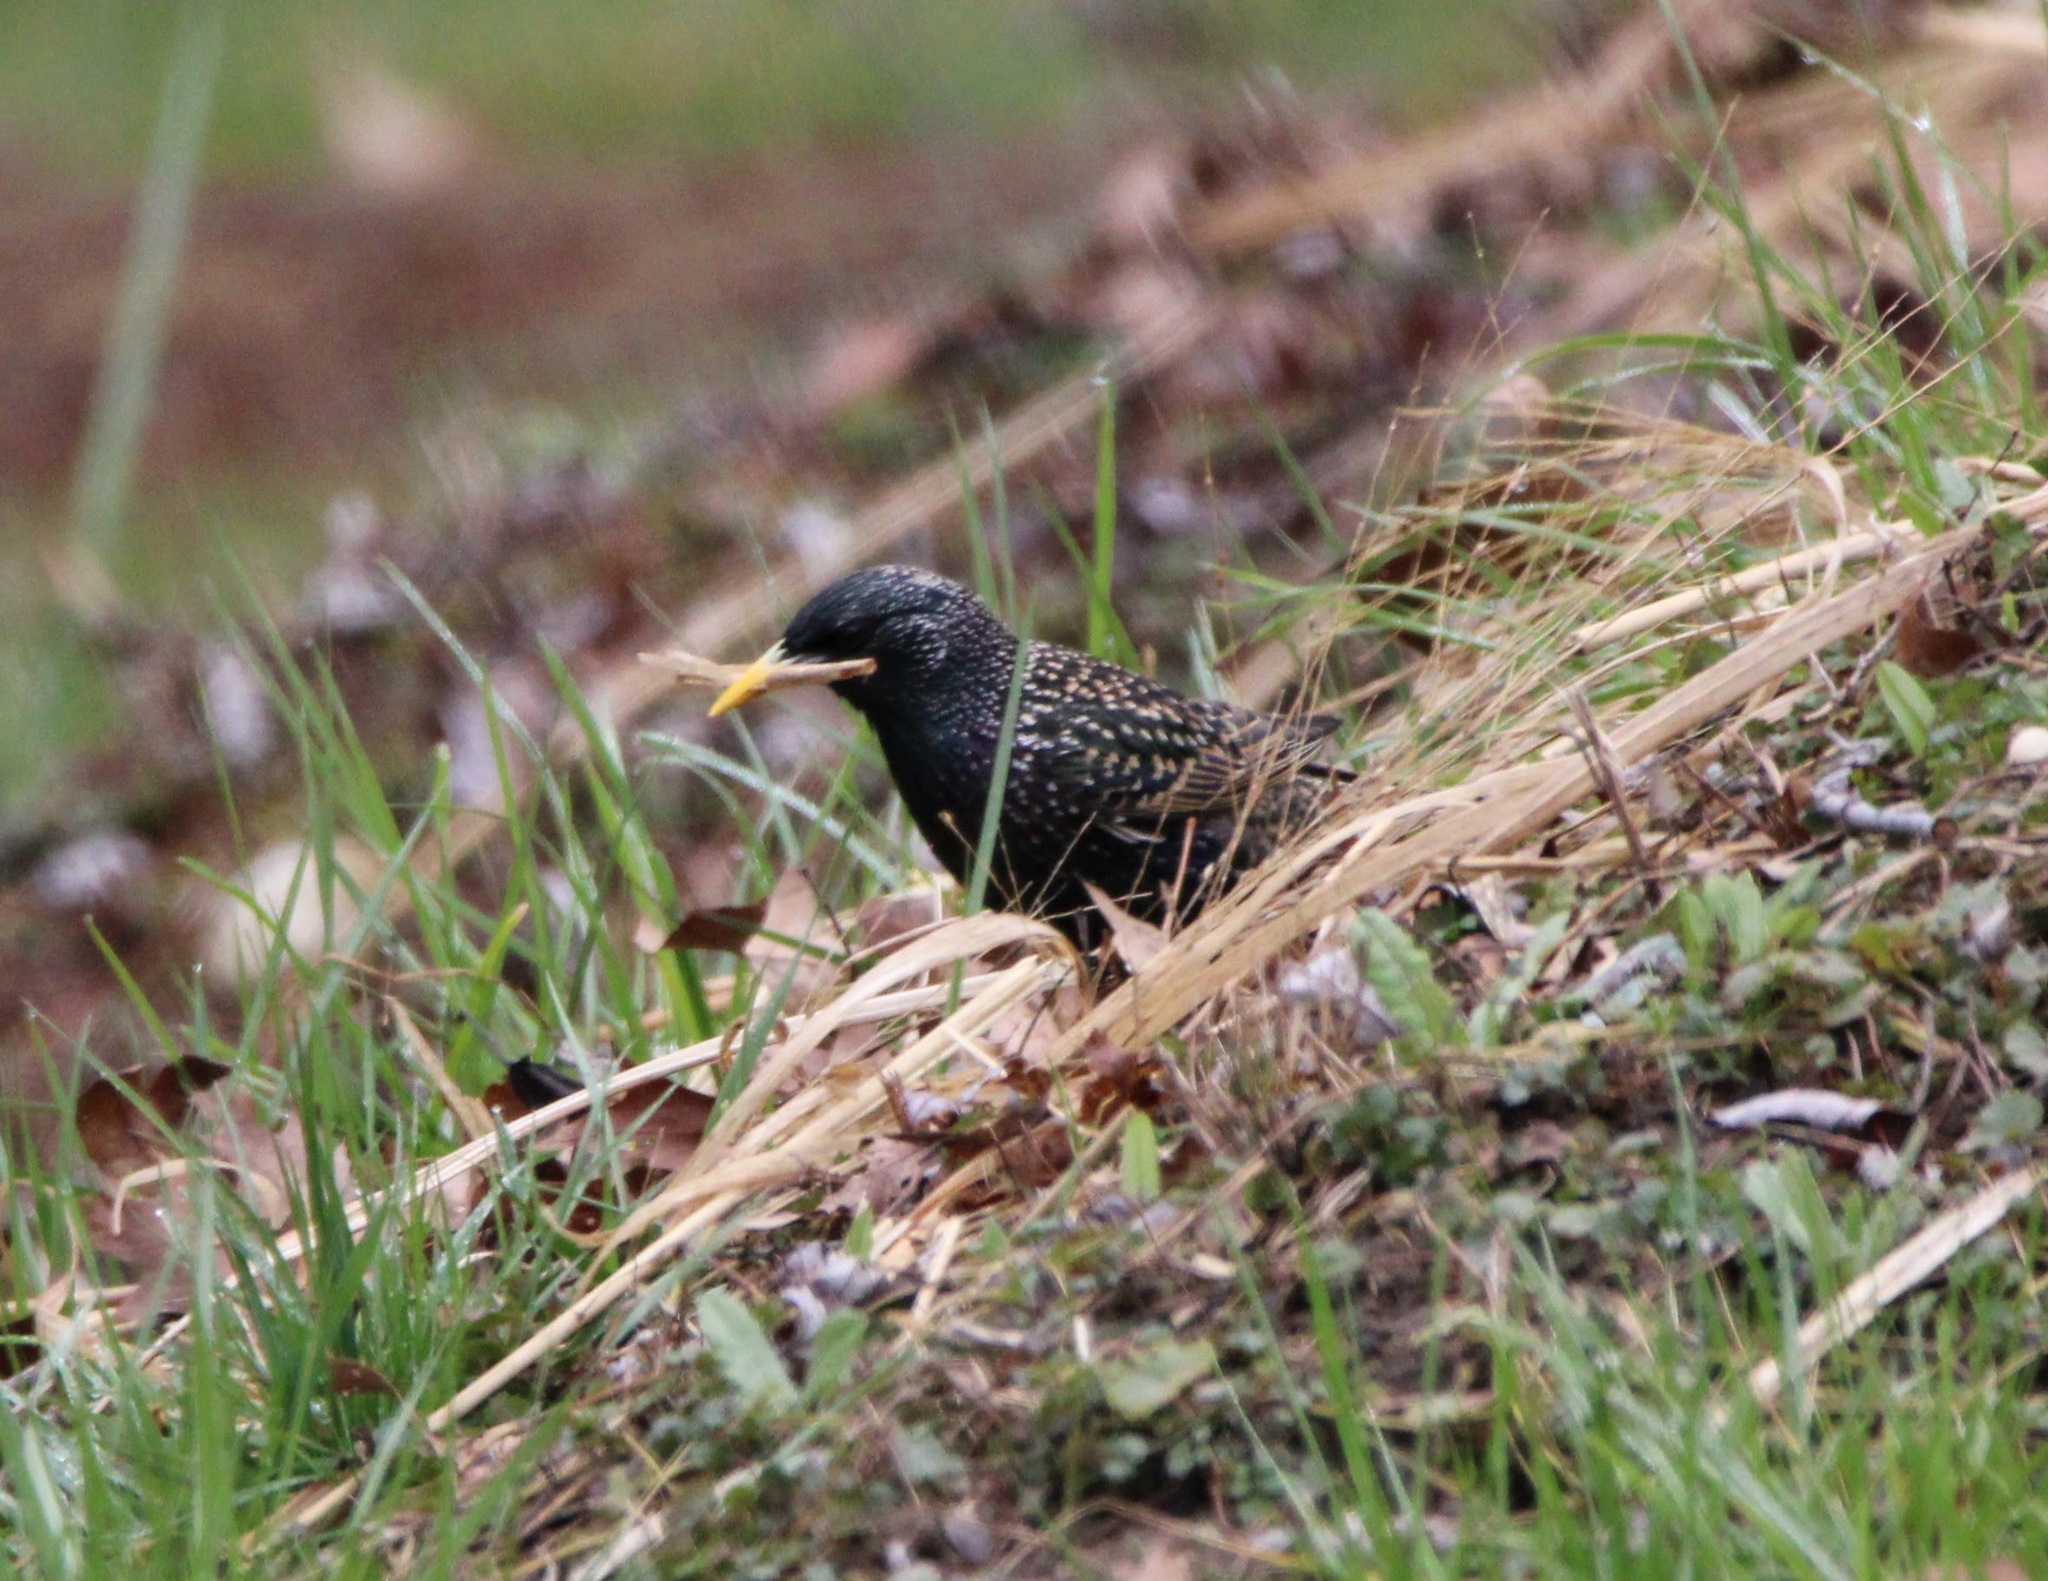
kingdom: Animalia
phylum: Chordata
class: Aves
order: Passeriformes
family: Sturnidae
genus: Sturnus
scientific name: Sturnus vulgaris
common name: Common starling
